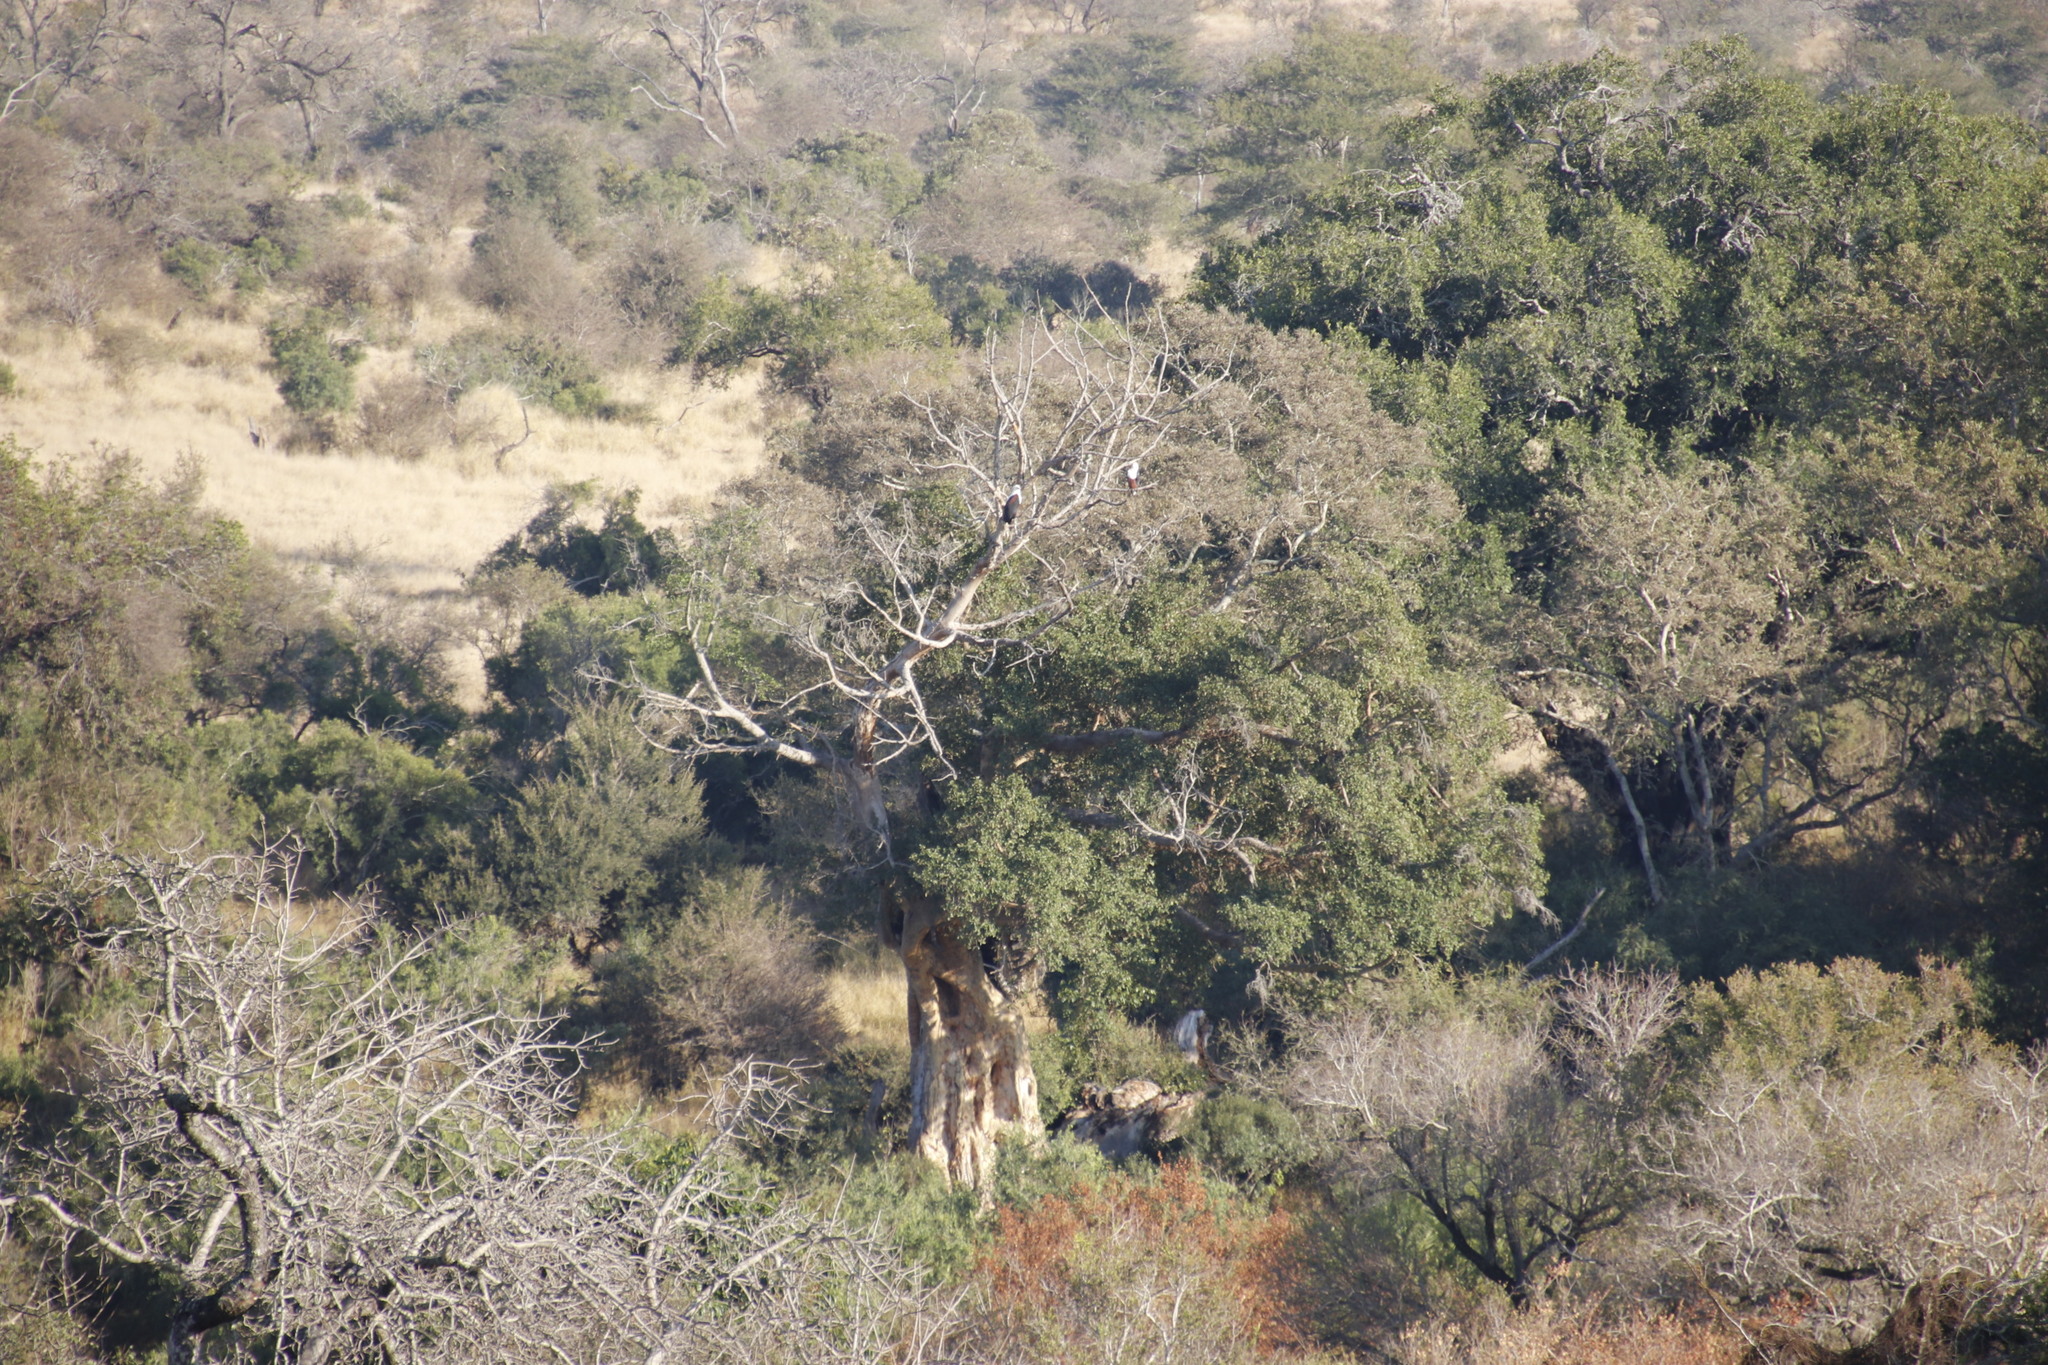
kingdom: Plantae
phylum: Tracheophyta
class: Magnoliopsida
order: Rosales
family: Moraceae
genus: Ficus
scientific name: Ficus sycomorus
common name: Sycomore
